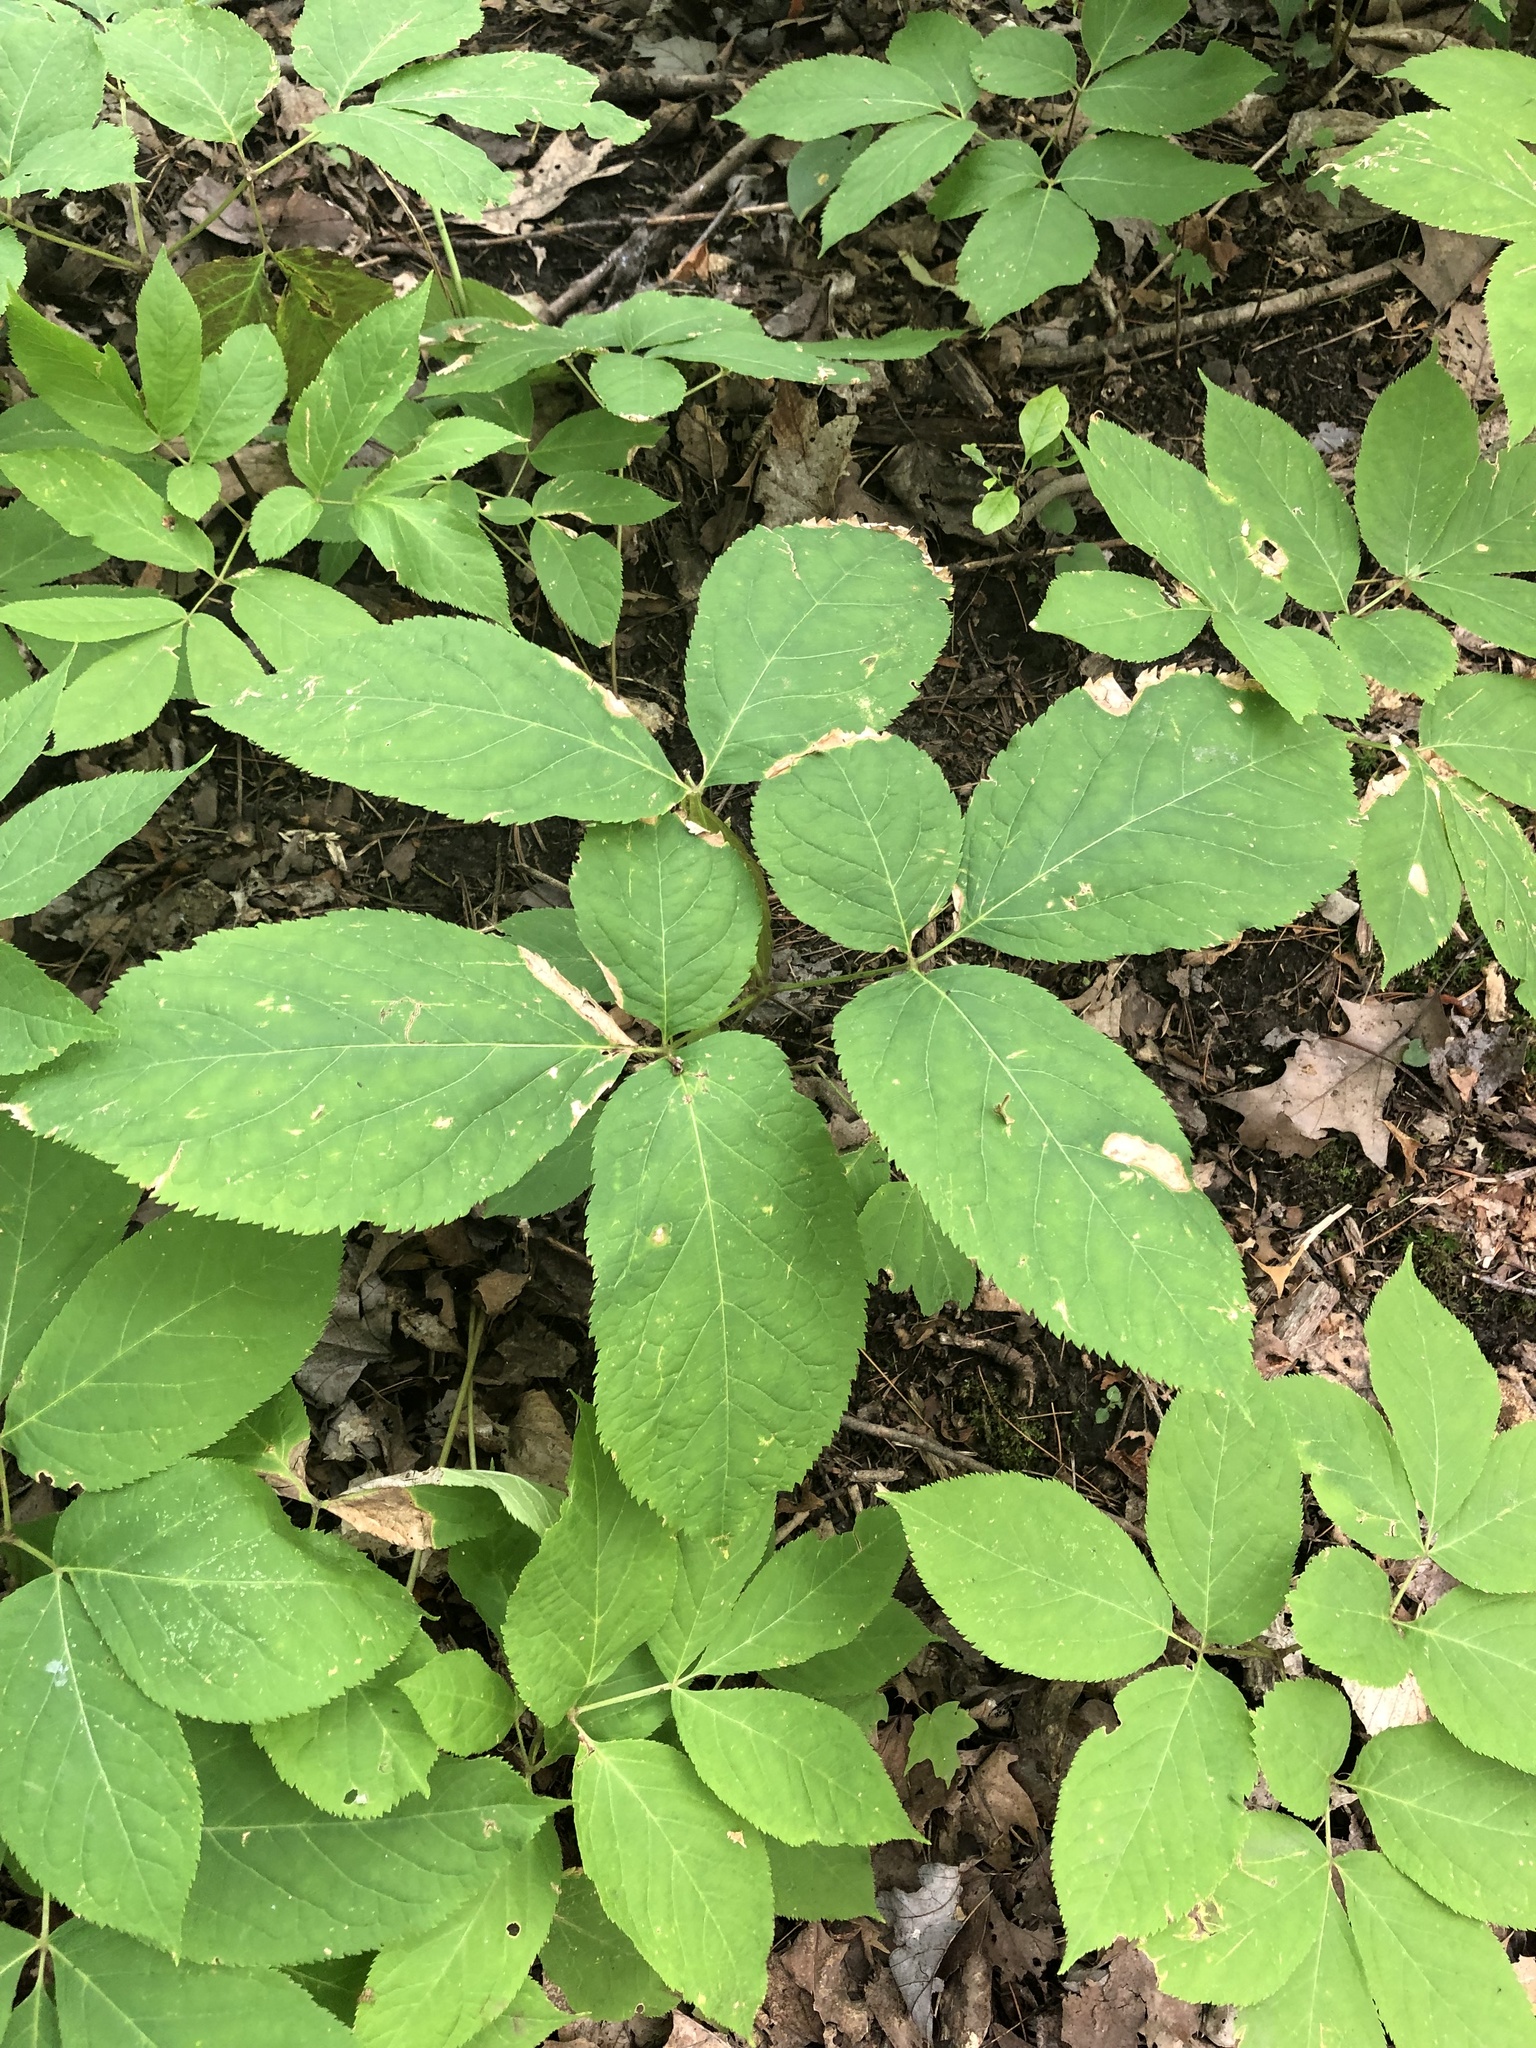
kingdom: Plantae
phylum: Tracheophyta
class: Magnoliopsida
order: Apiales
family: Araliaceae
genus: Aralia
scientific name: Aralia nudicaulis
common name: Wild sarsaparilla
